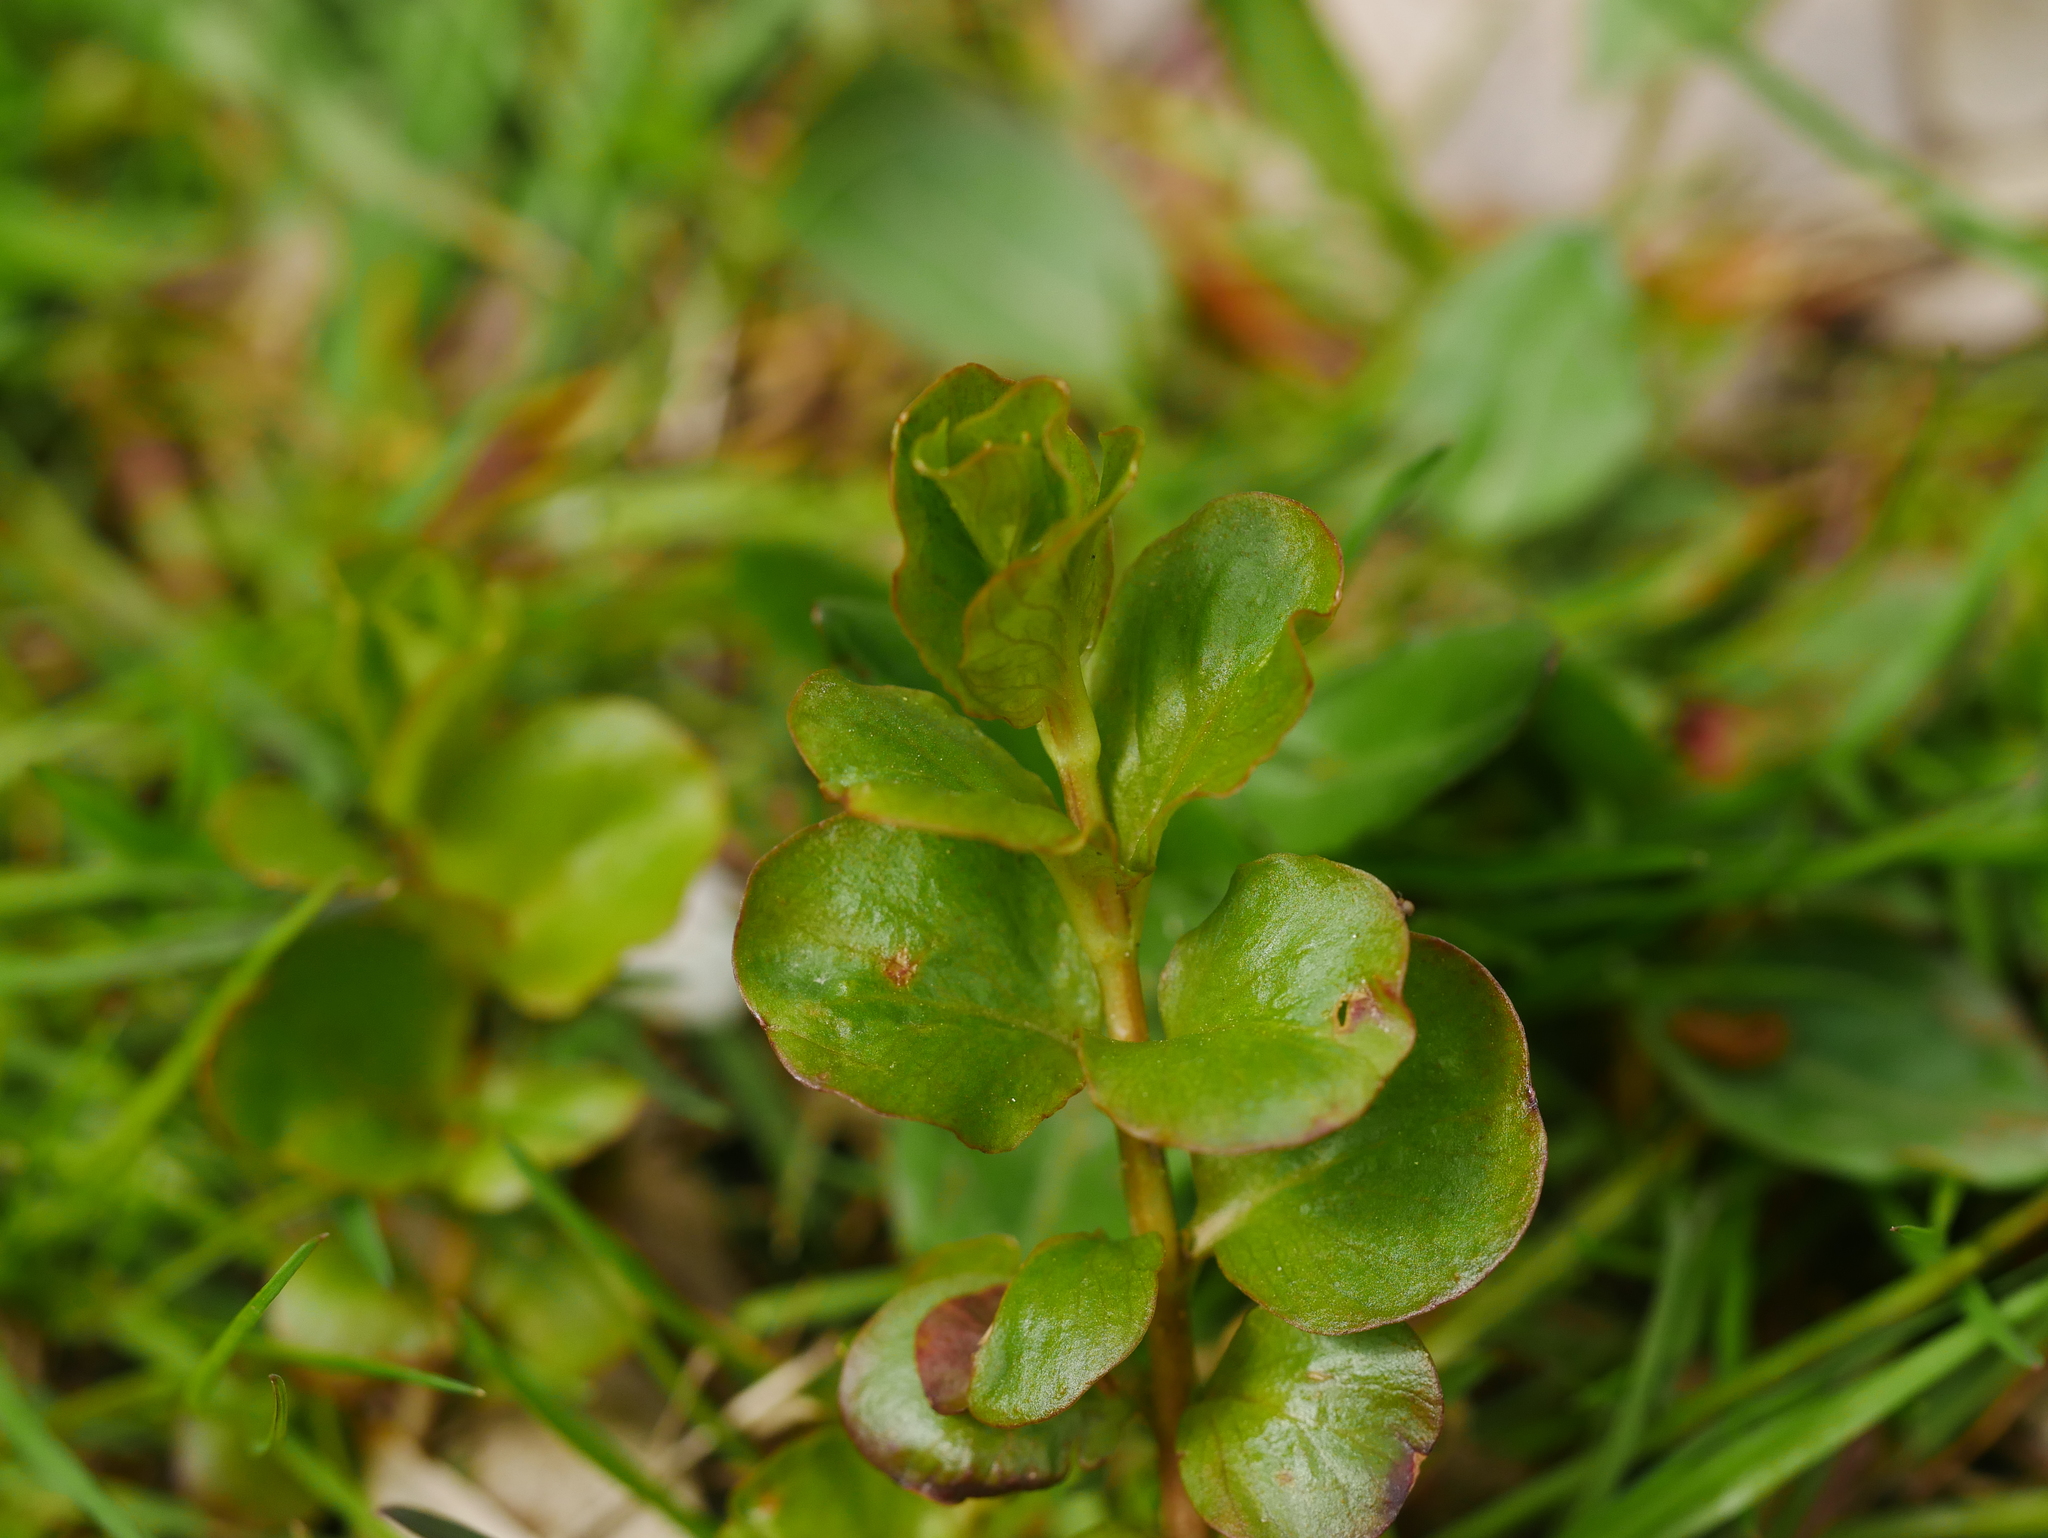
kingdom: Plantae
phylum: Tracheophyta
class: Magnoliopsida
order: Ericales
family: Primulaceae
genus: Lysimachia
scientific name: Lysimachia nummularia
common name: Moneywort
